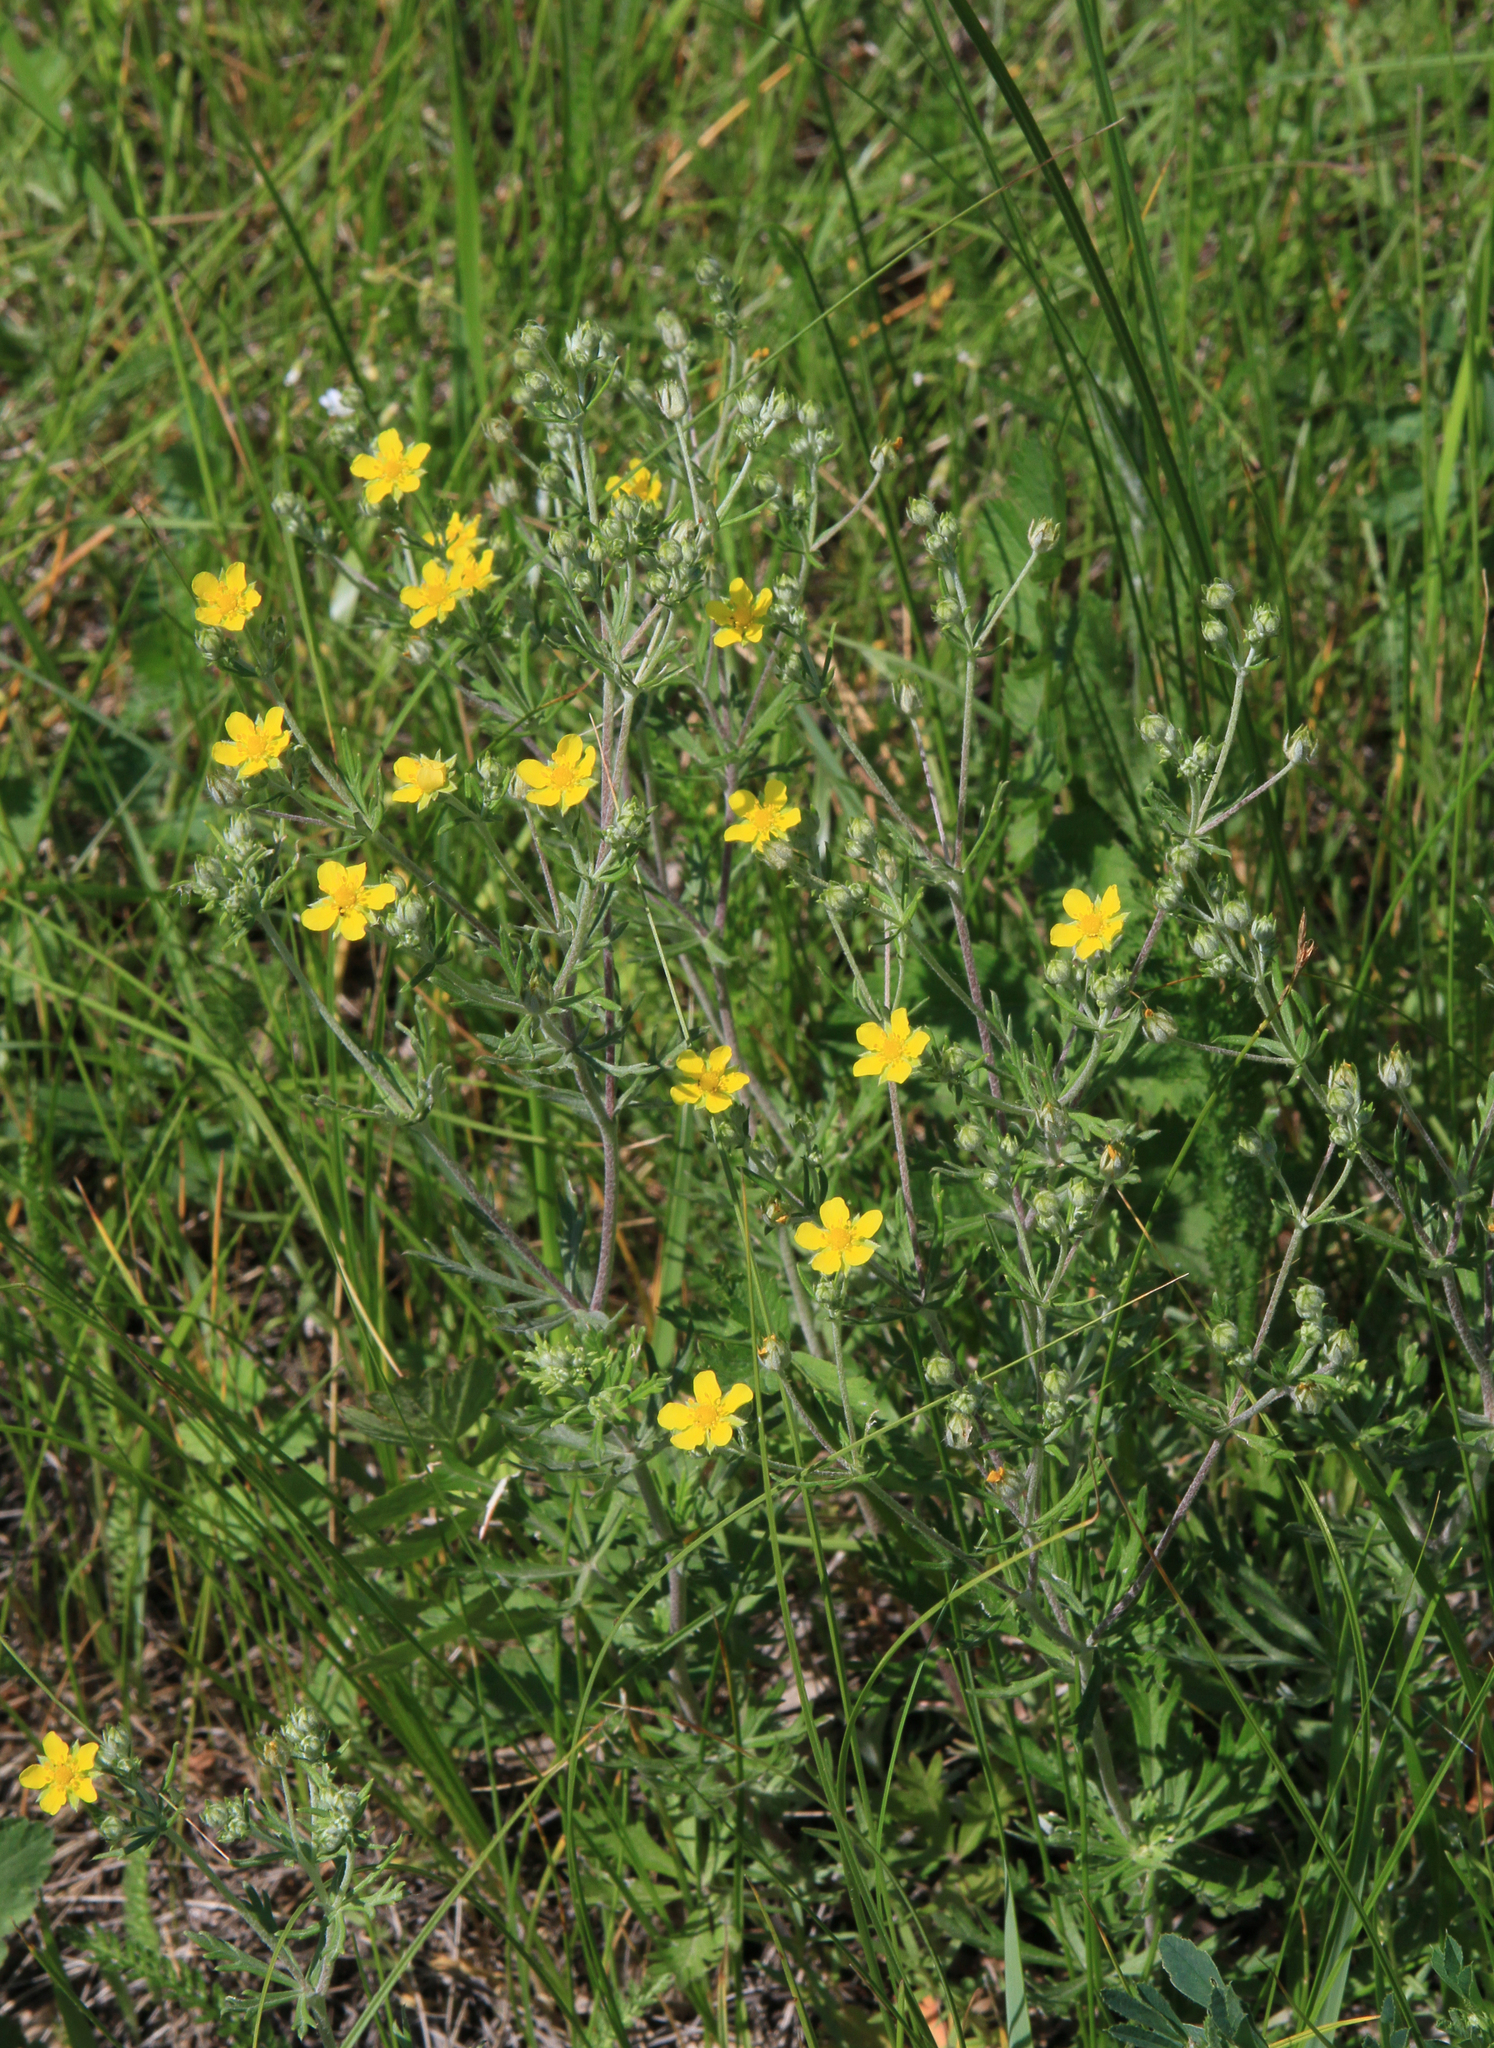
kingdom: Plantae
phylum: Tracheophyta
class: Magnoliopsida
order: Rosales
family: Rosaceae
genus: Potentilla
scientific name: Potentilla argentea
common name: Hoary cinquefoil
